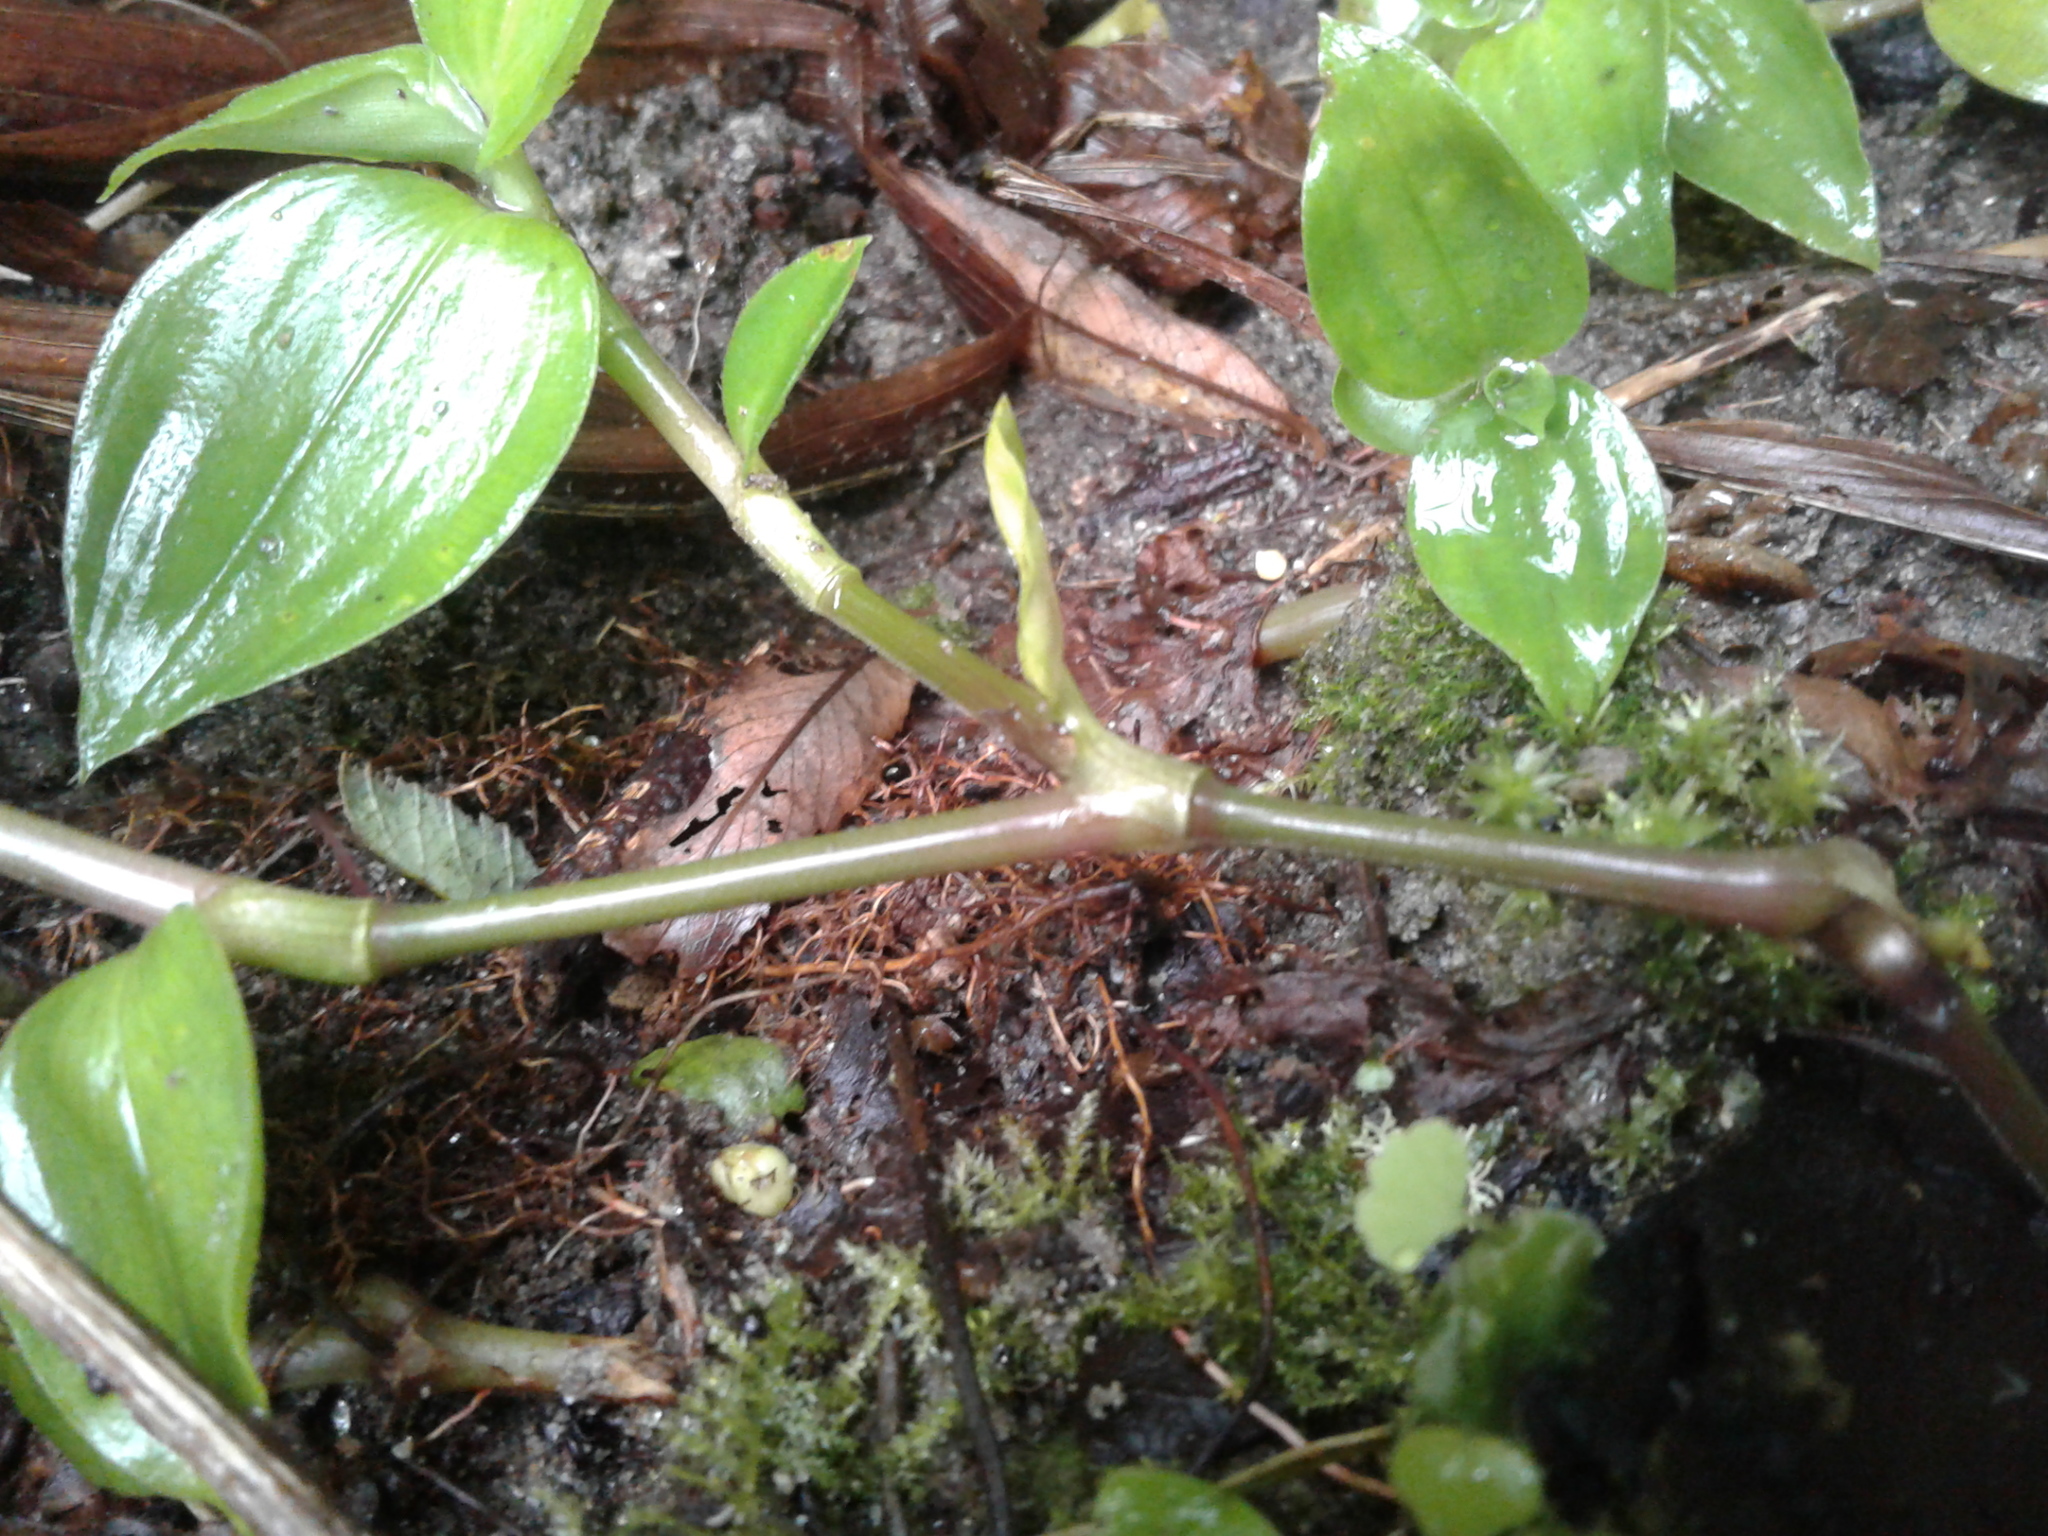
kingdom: Plantae
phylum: Tracheophyta
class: Liliopsida
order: Commelinales
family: Commelinaceae
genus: Tradescantia
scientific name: Tradescantia fluminensis
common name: Wandering-jew
